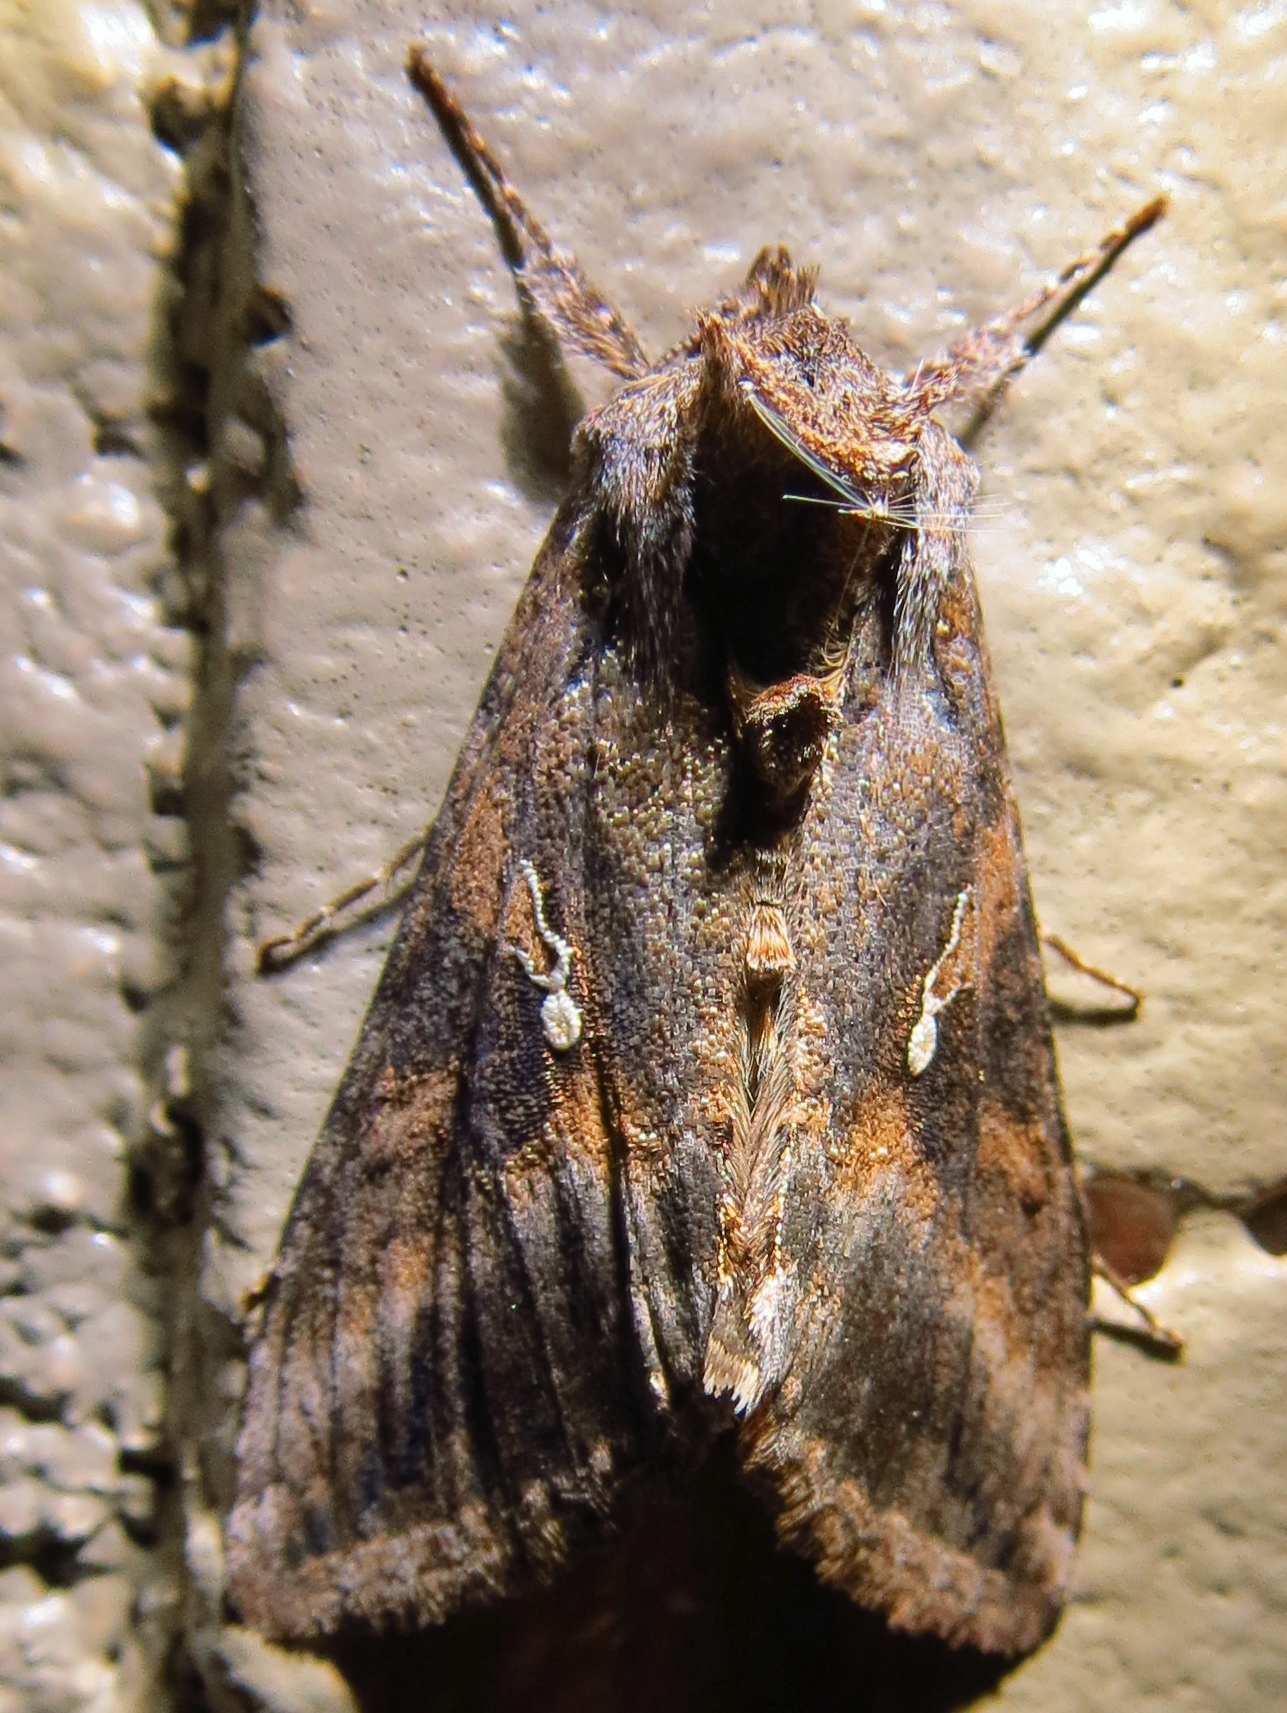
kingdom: Animalia
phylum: Arthropoda
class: Insecta
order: Lepidoptera
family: Noctuidae
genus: Rachiplusia
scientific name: Rachiplusia ou
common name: Gray looper moth
